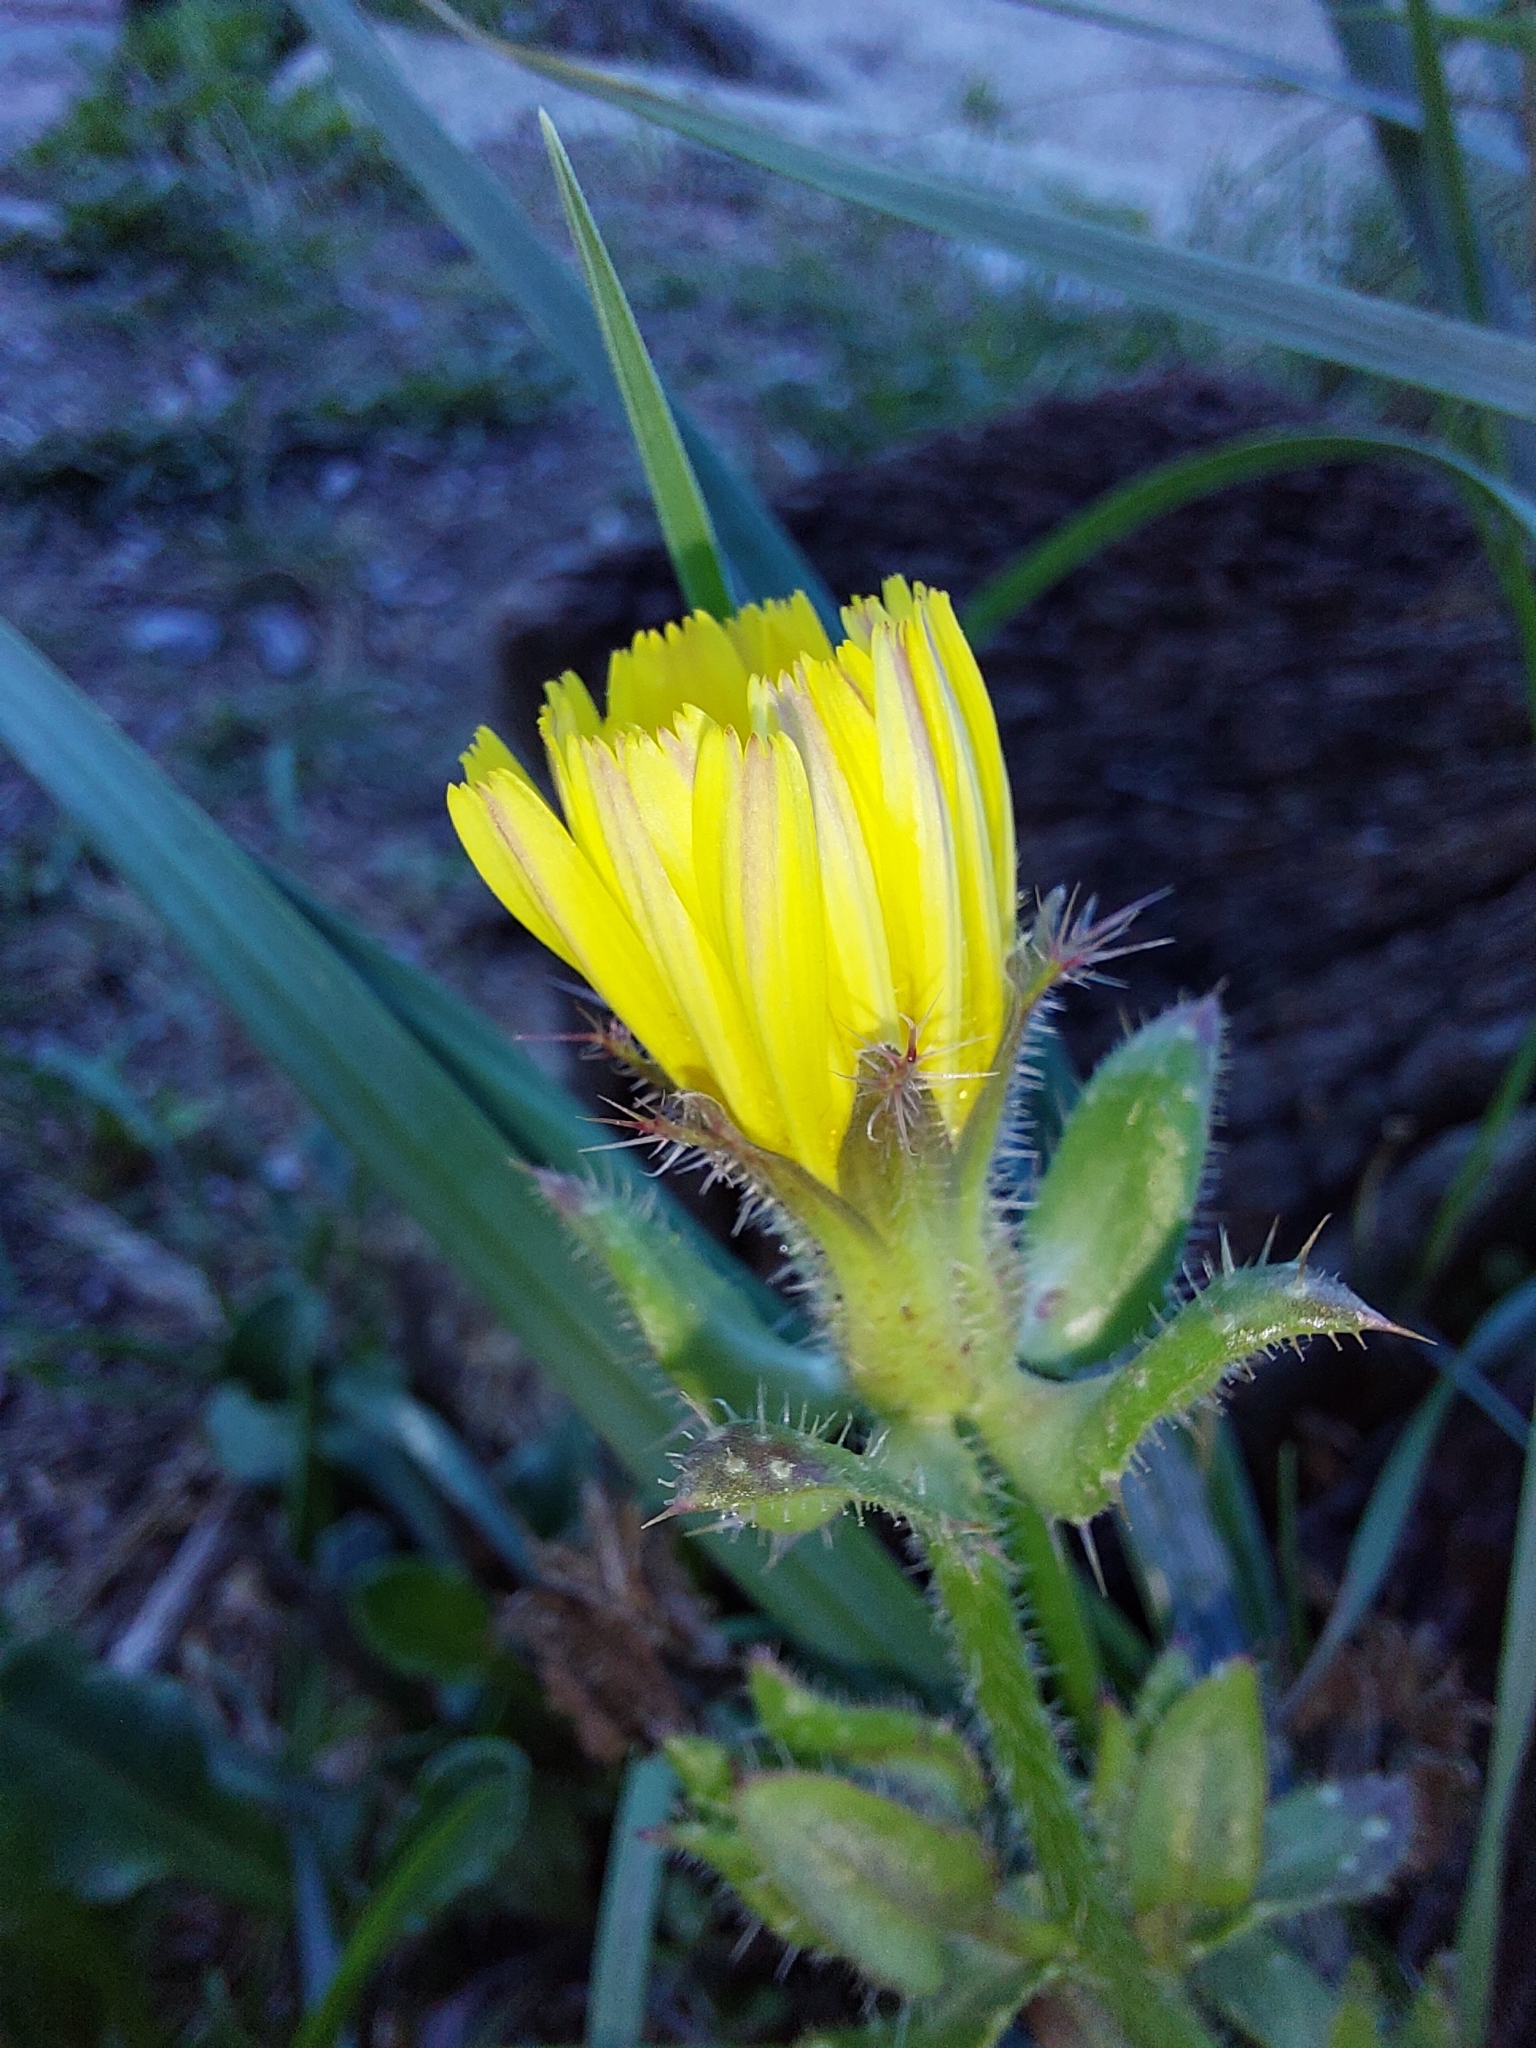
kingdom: Plantae
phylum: Tracheophyta
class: Magnoliopsida
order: Asterales
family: Asteraceae
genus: Helminthotheca
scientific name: Helminthotheca echioides
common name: Ox-tongue
